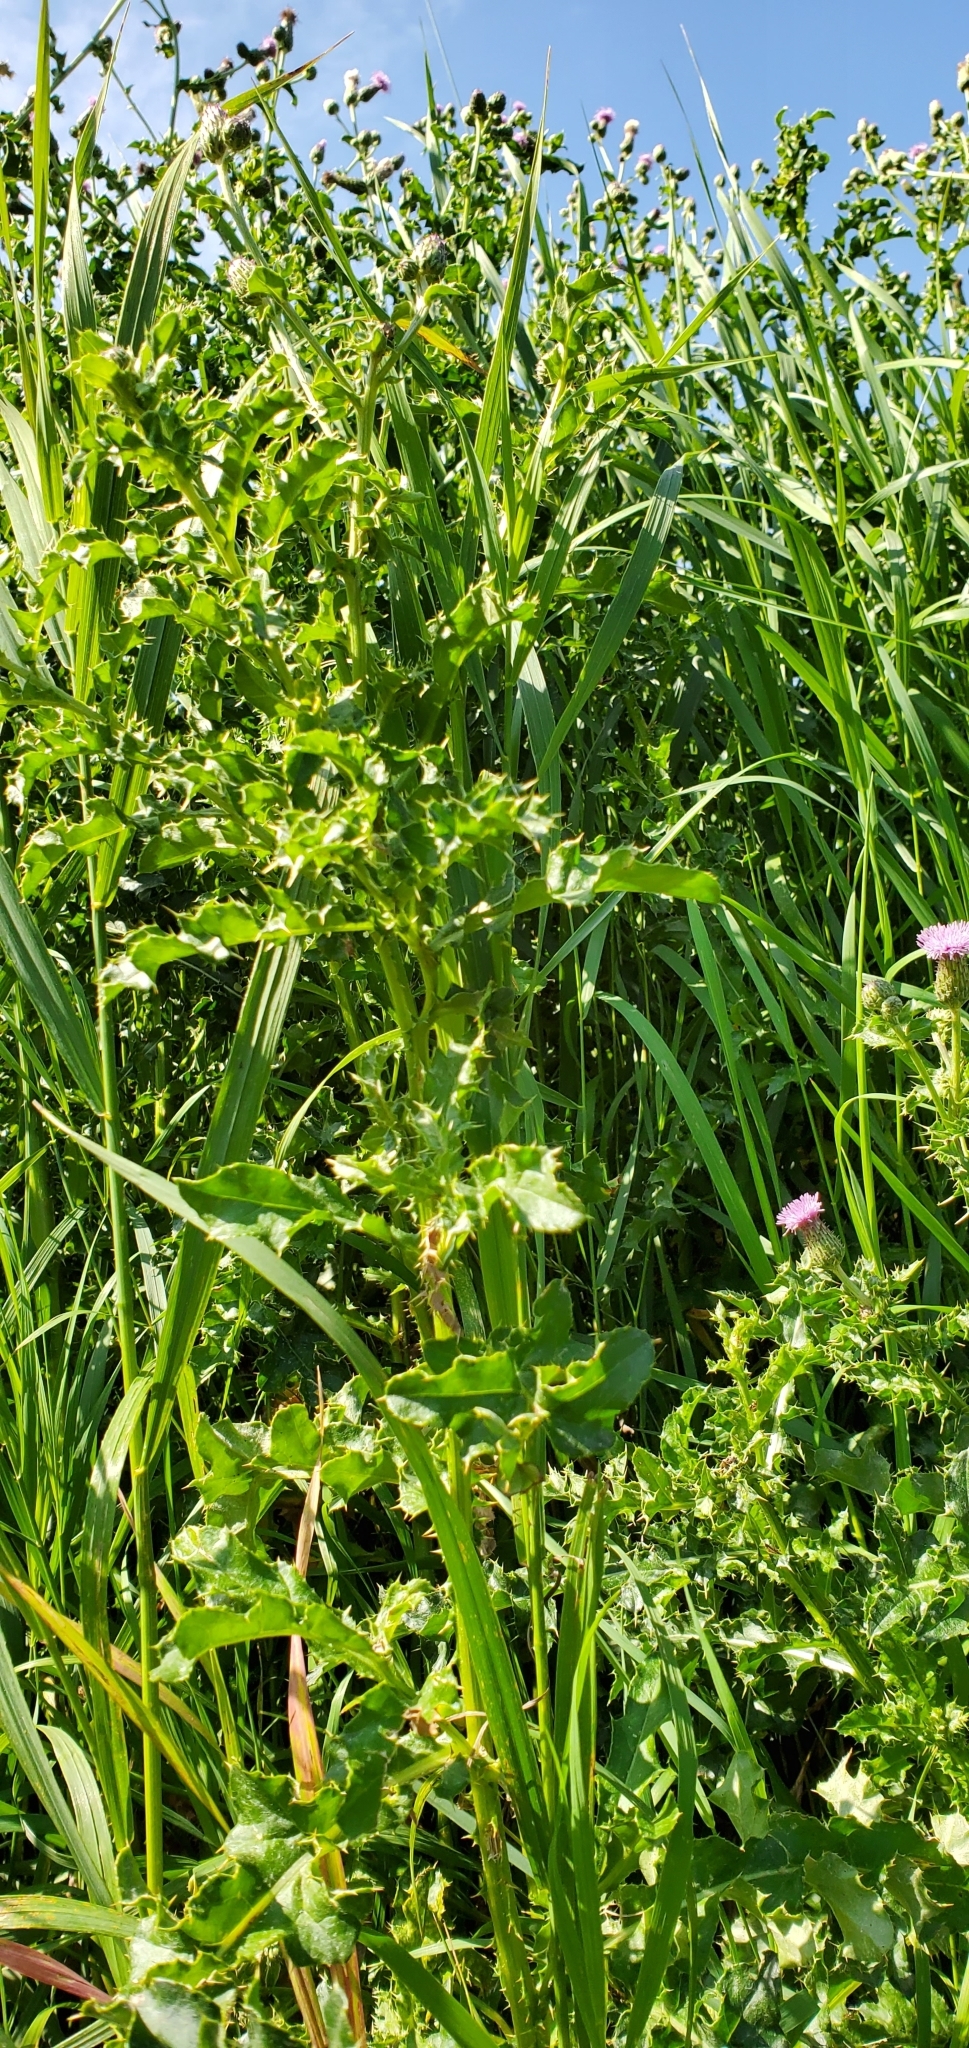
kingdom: Plantae
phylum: Tracheophyta
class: Magnoliopsida
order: Asterales
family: Asteraceae
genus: Cirsium
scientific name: Cirsium arvense
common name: Creeping thistle
